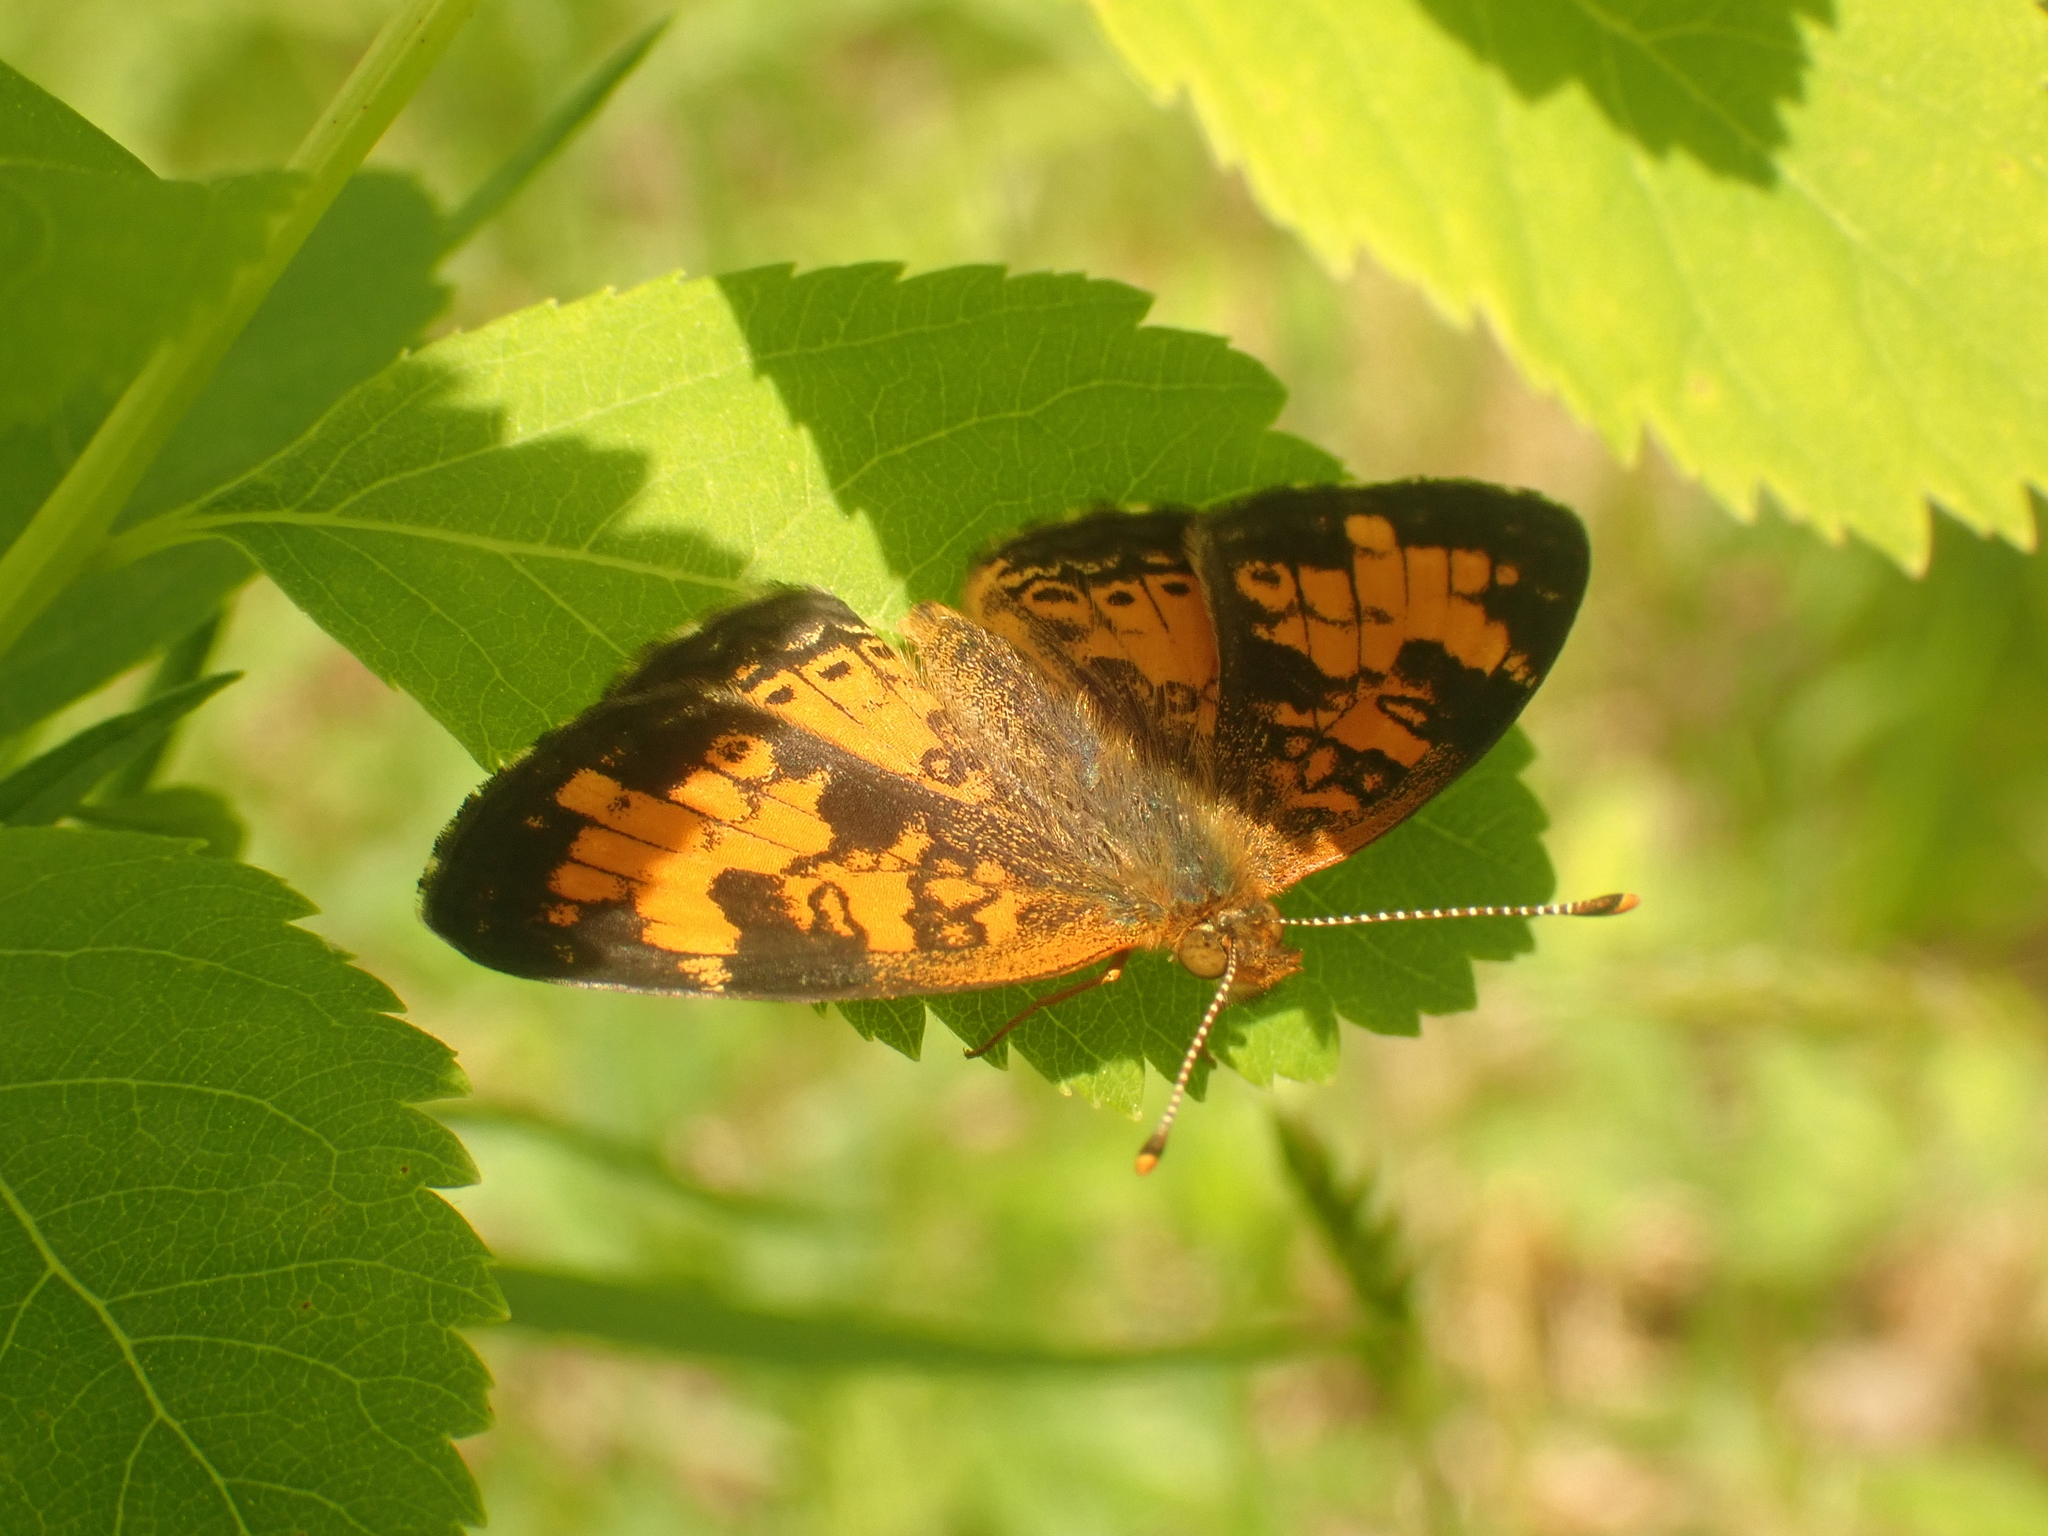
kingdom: Animalia
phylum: Arthropoda
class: Insecta
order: Lepidoptera
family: Nymphalidae
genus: Phyciodes
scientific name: Phyciodes tharos
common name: Pearl crescent
